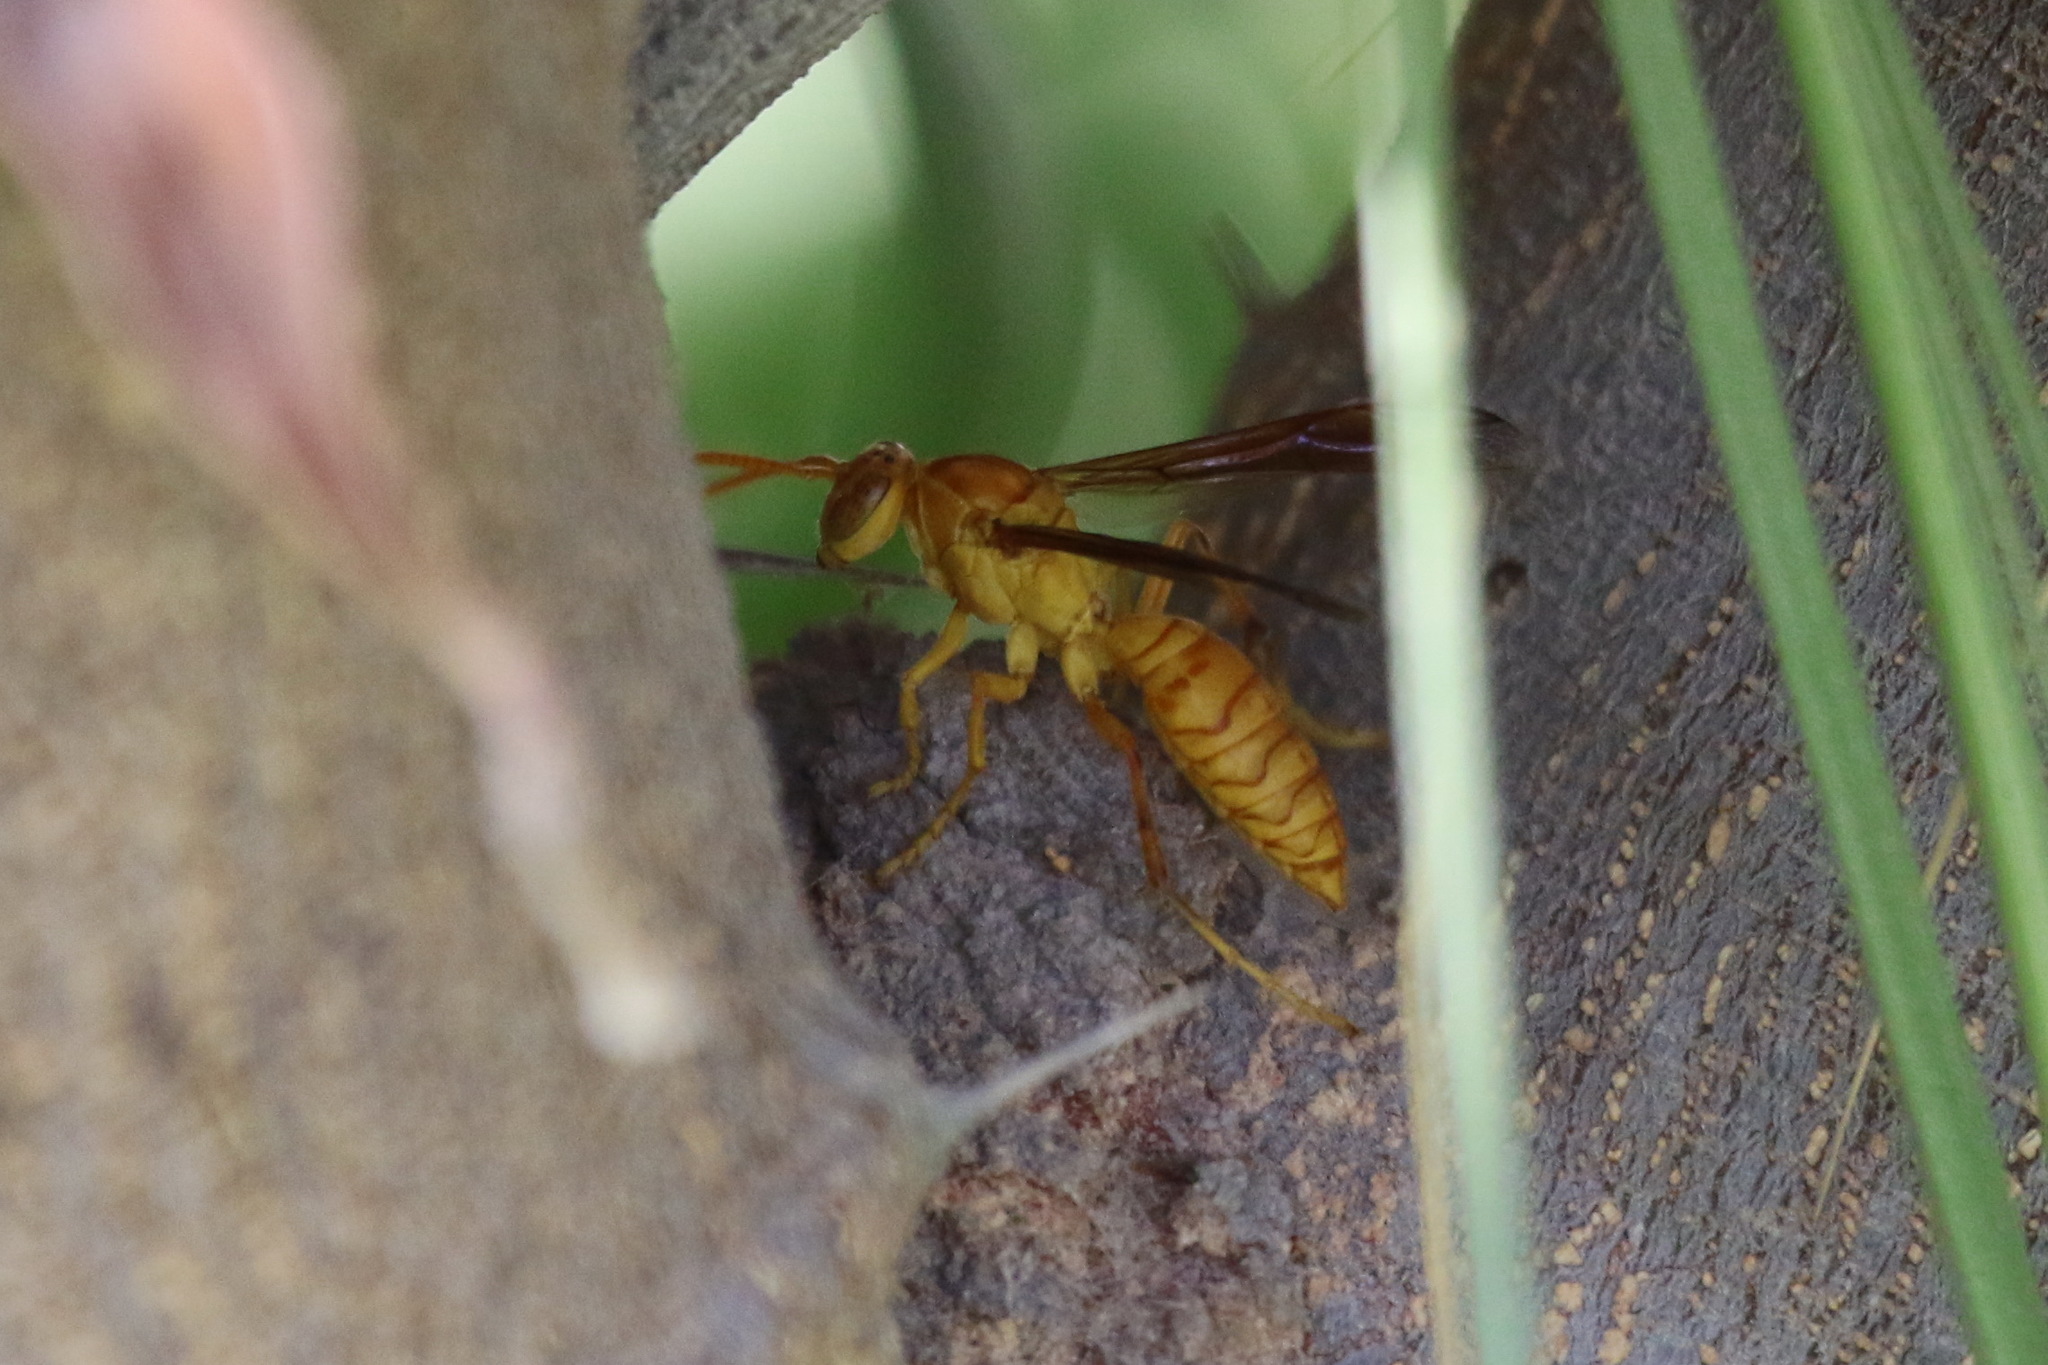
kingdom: Animalia
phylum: Arthropoda
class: Insecta
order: Hymenoptera
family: Eumenidae
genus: Polistes
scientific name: Polistes wattii
